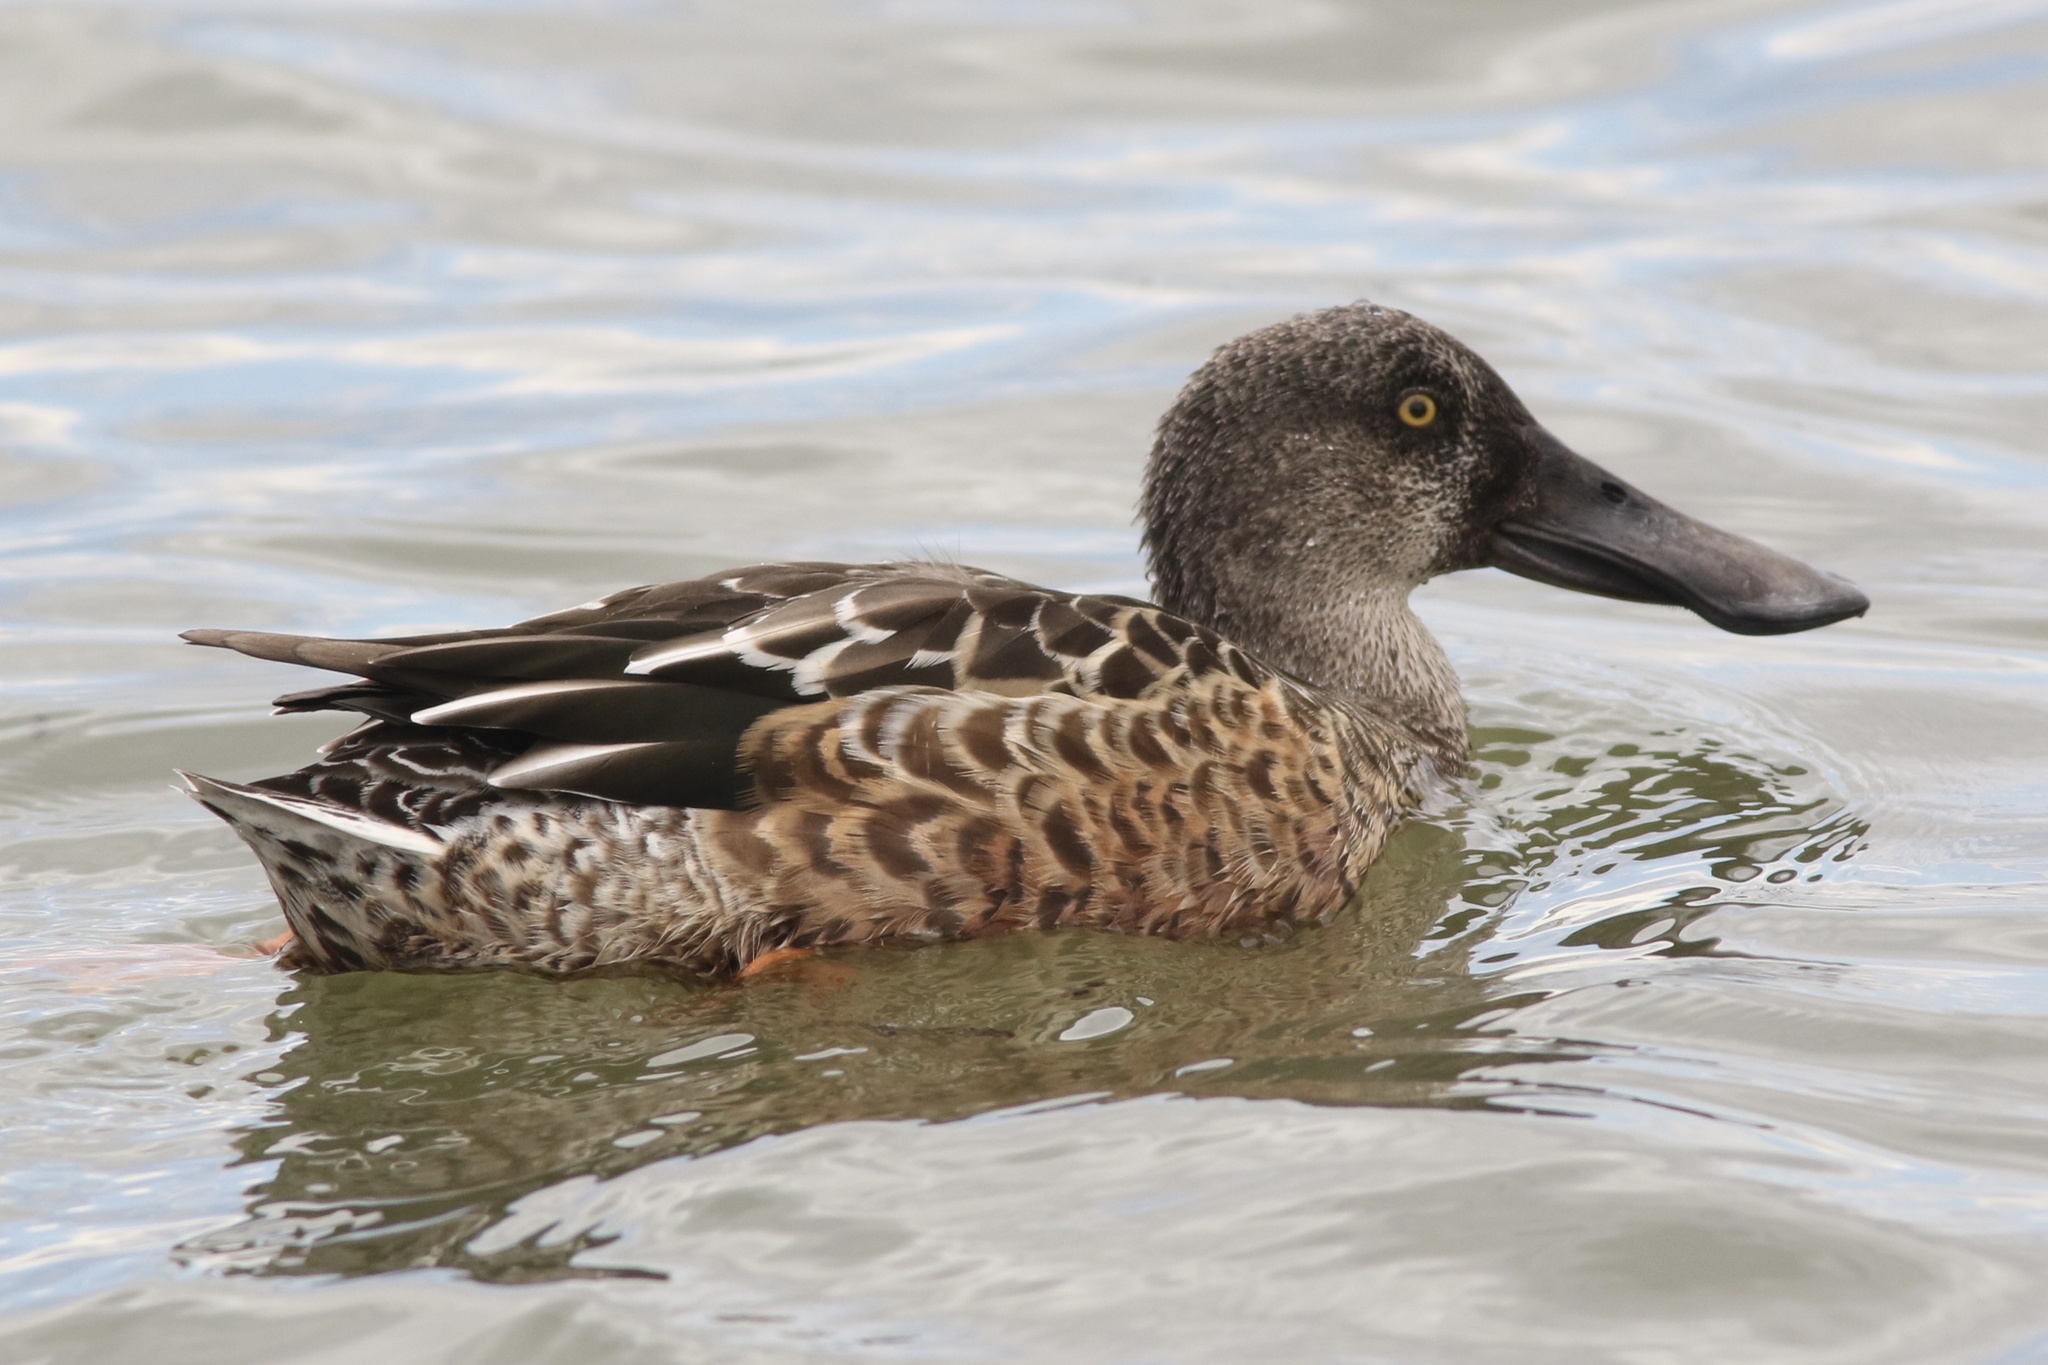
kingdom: Animalia
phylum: Chordata
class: Aves
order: Anseriformes
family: Anatidae
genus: Spatula
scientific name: Spatula clypeata
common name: Northern shoveler
